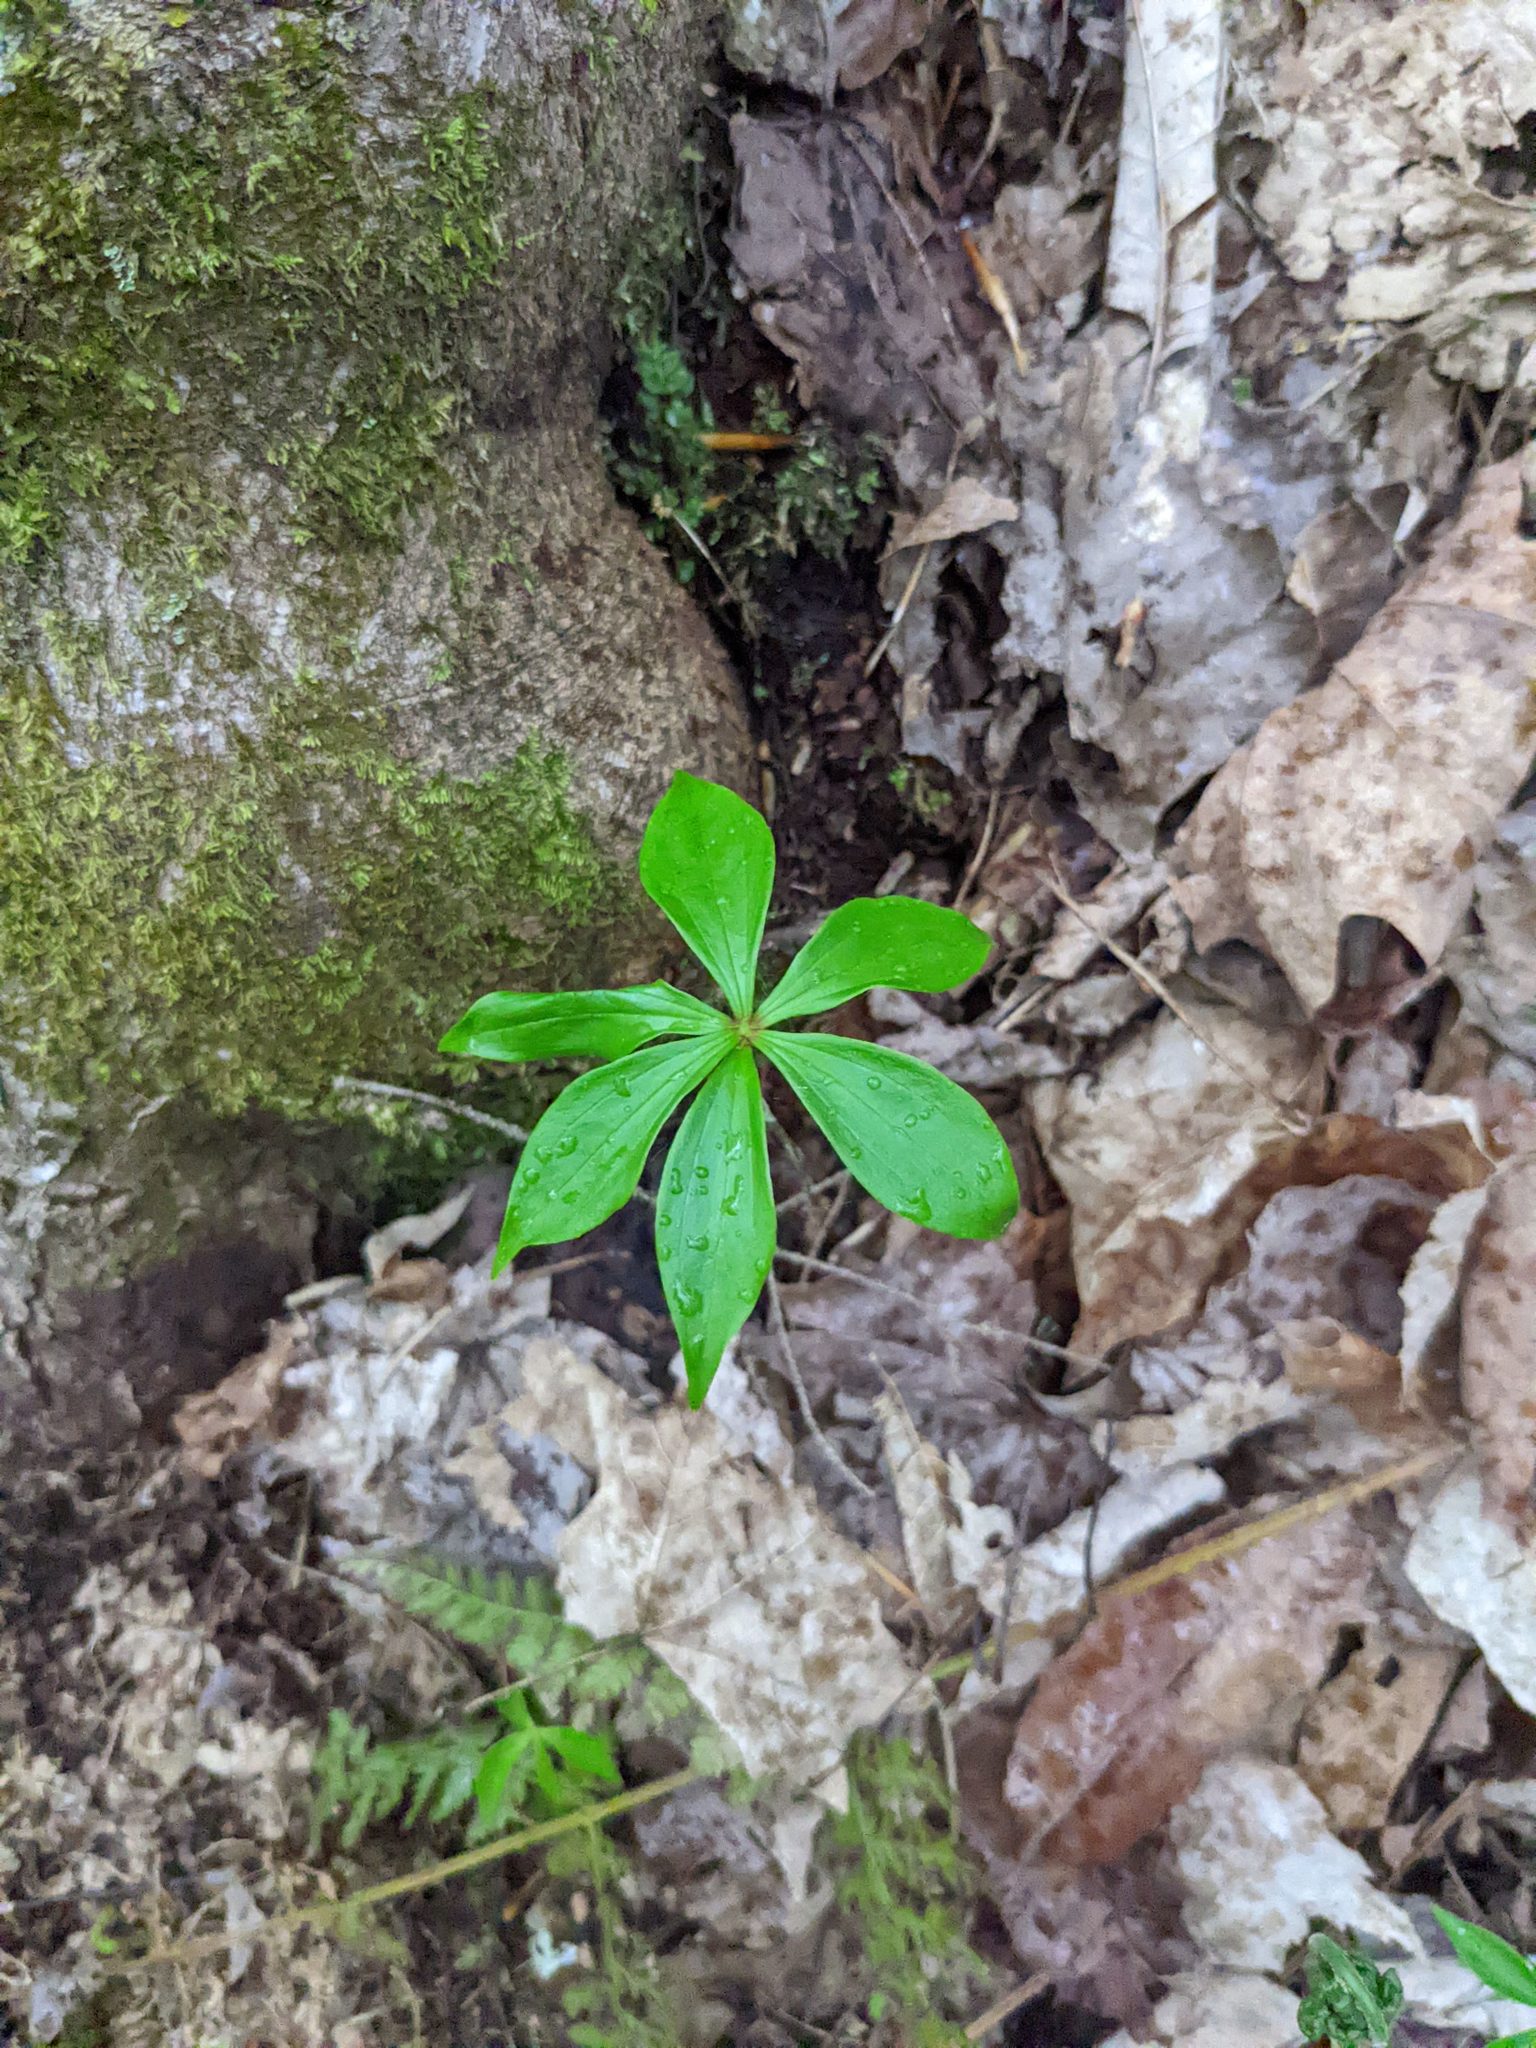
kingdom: Plantae
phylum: Tracheophyta
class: Liliopsida
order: Liliales
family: Liliaceae
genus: Medeola
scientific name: Medeola virginiana
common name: Indian cucumber-root
